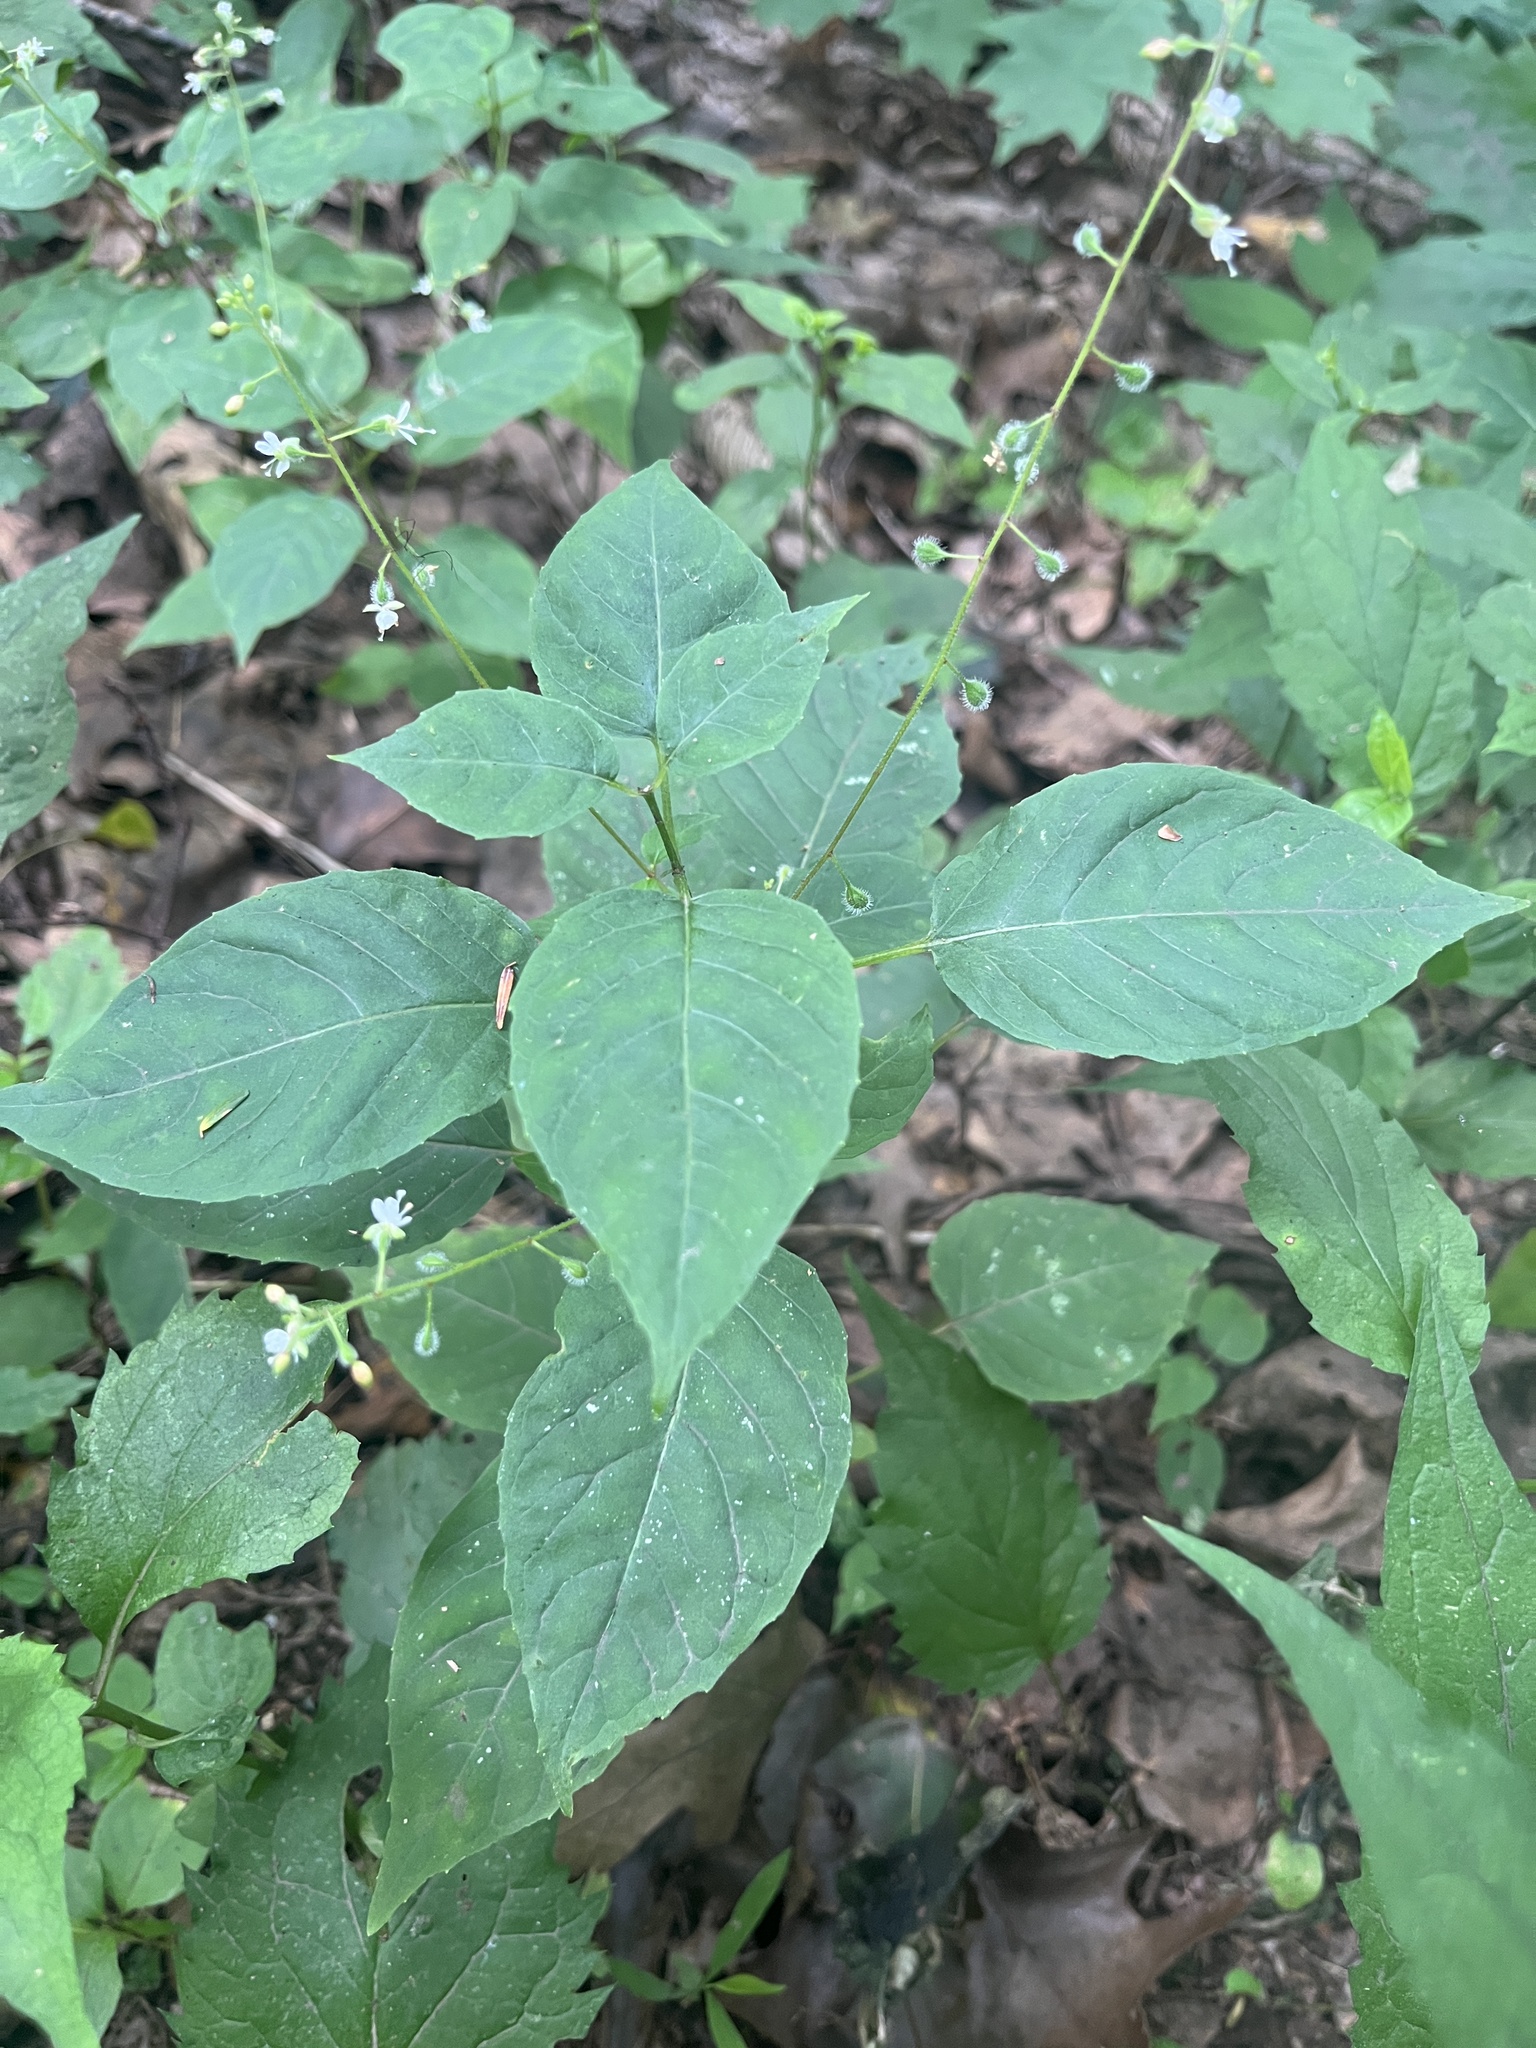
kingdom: Plantae
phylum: Tracheophyta
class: Magnoliopsida
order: Myrtales
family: Onagraceae
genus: Circaea
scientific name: Circaea canadensis
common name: Broad-leaved enchanter's nightshade
